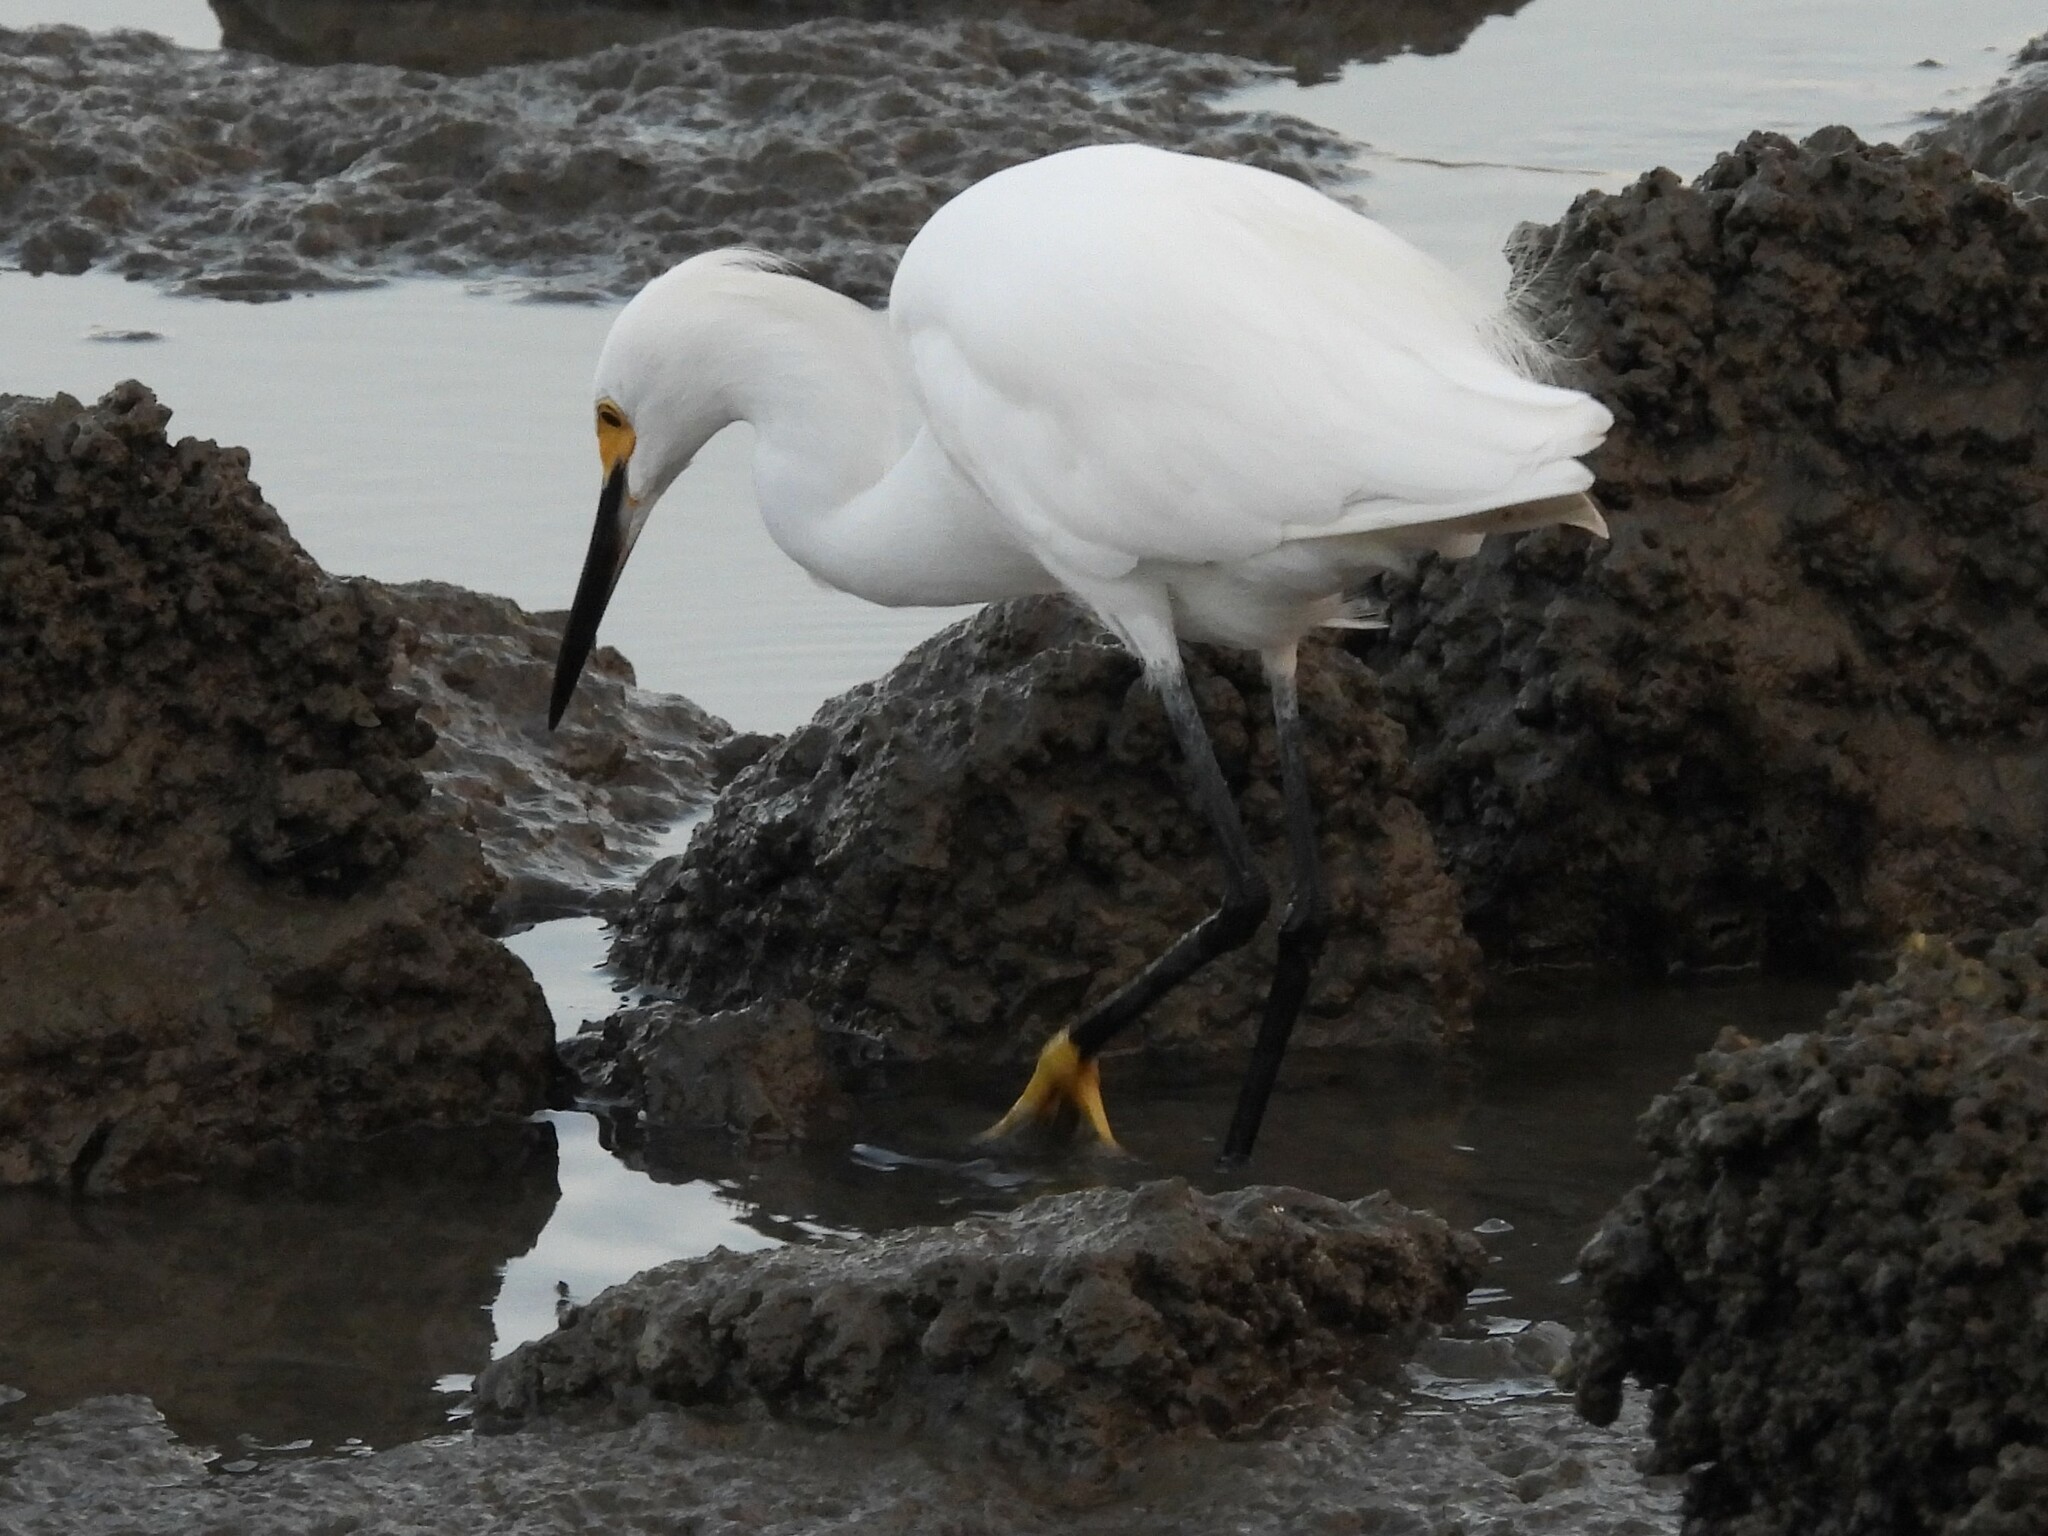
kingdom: Animalia
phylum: Chordata
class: Aves
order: Pelecaniformes
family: Ardeidae
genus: Egretta
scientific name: Egretta thula
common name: Snowy egret
